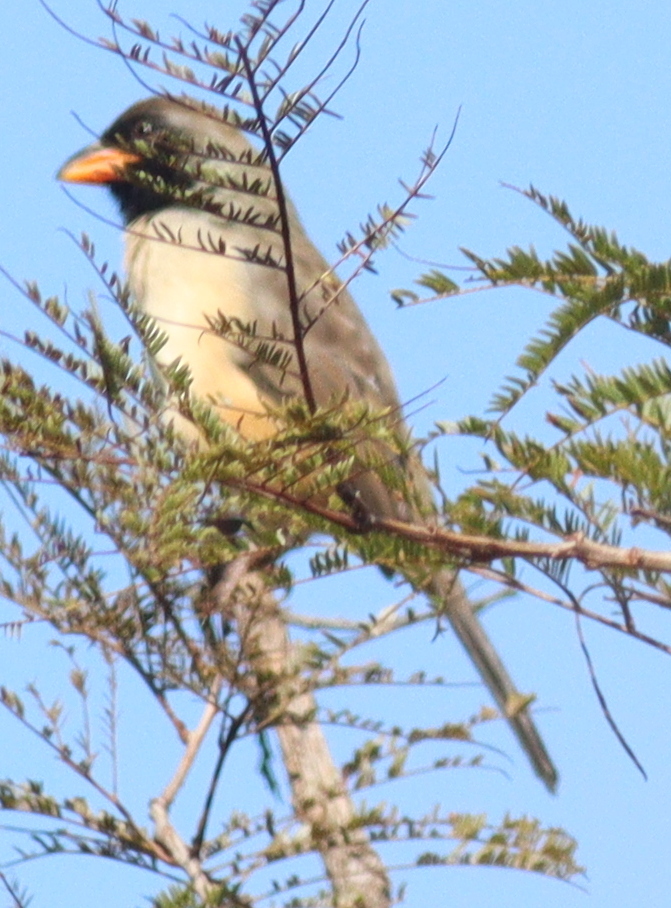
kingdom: Animalia
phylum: Chordata
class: Aves
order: Passeriformes
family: Thraupidae
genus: Saltatricula
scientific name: Saltatricula atricollis
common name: Black-throated saltator
